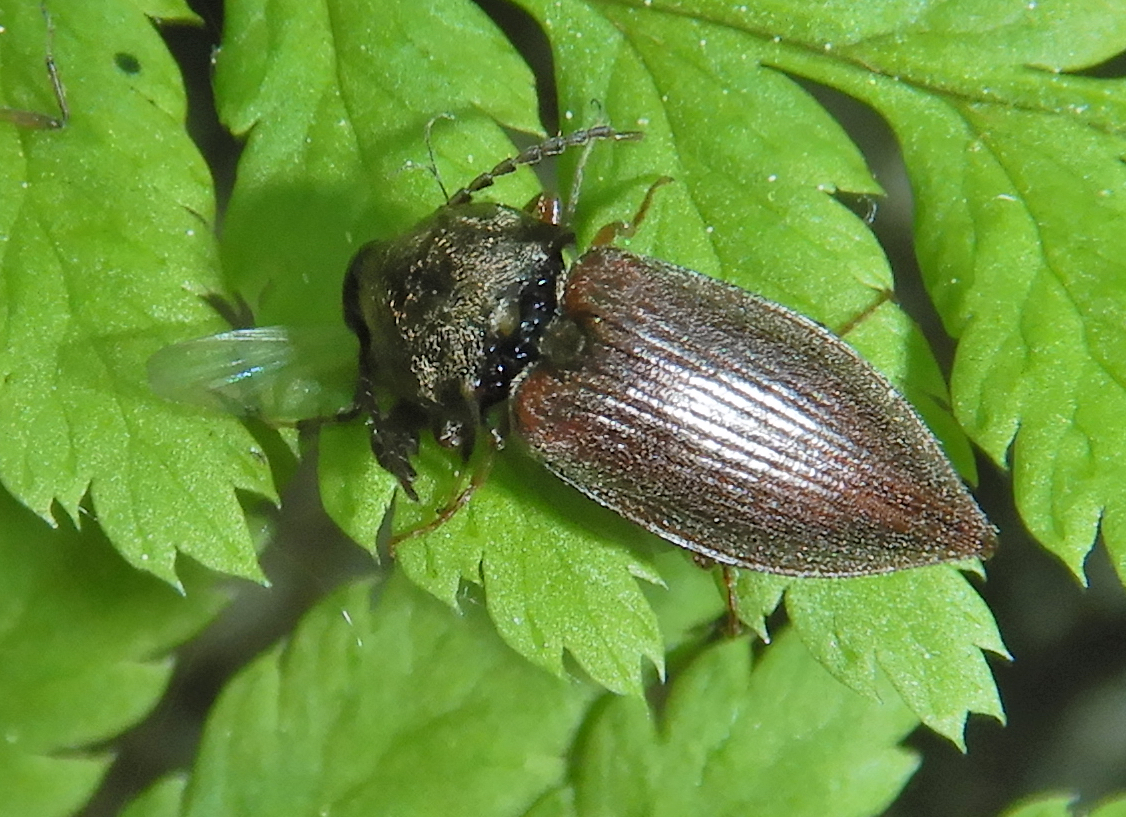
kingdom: Animalia
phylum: Arthropoda
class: Insecta
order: Coleoptera
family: Elateridae
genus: Oxygonus
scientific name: Oxygonus obesus
